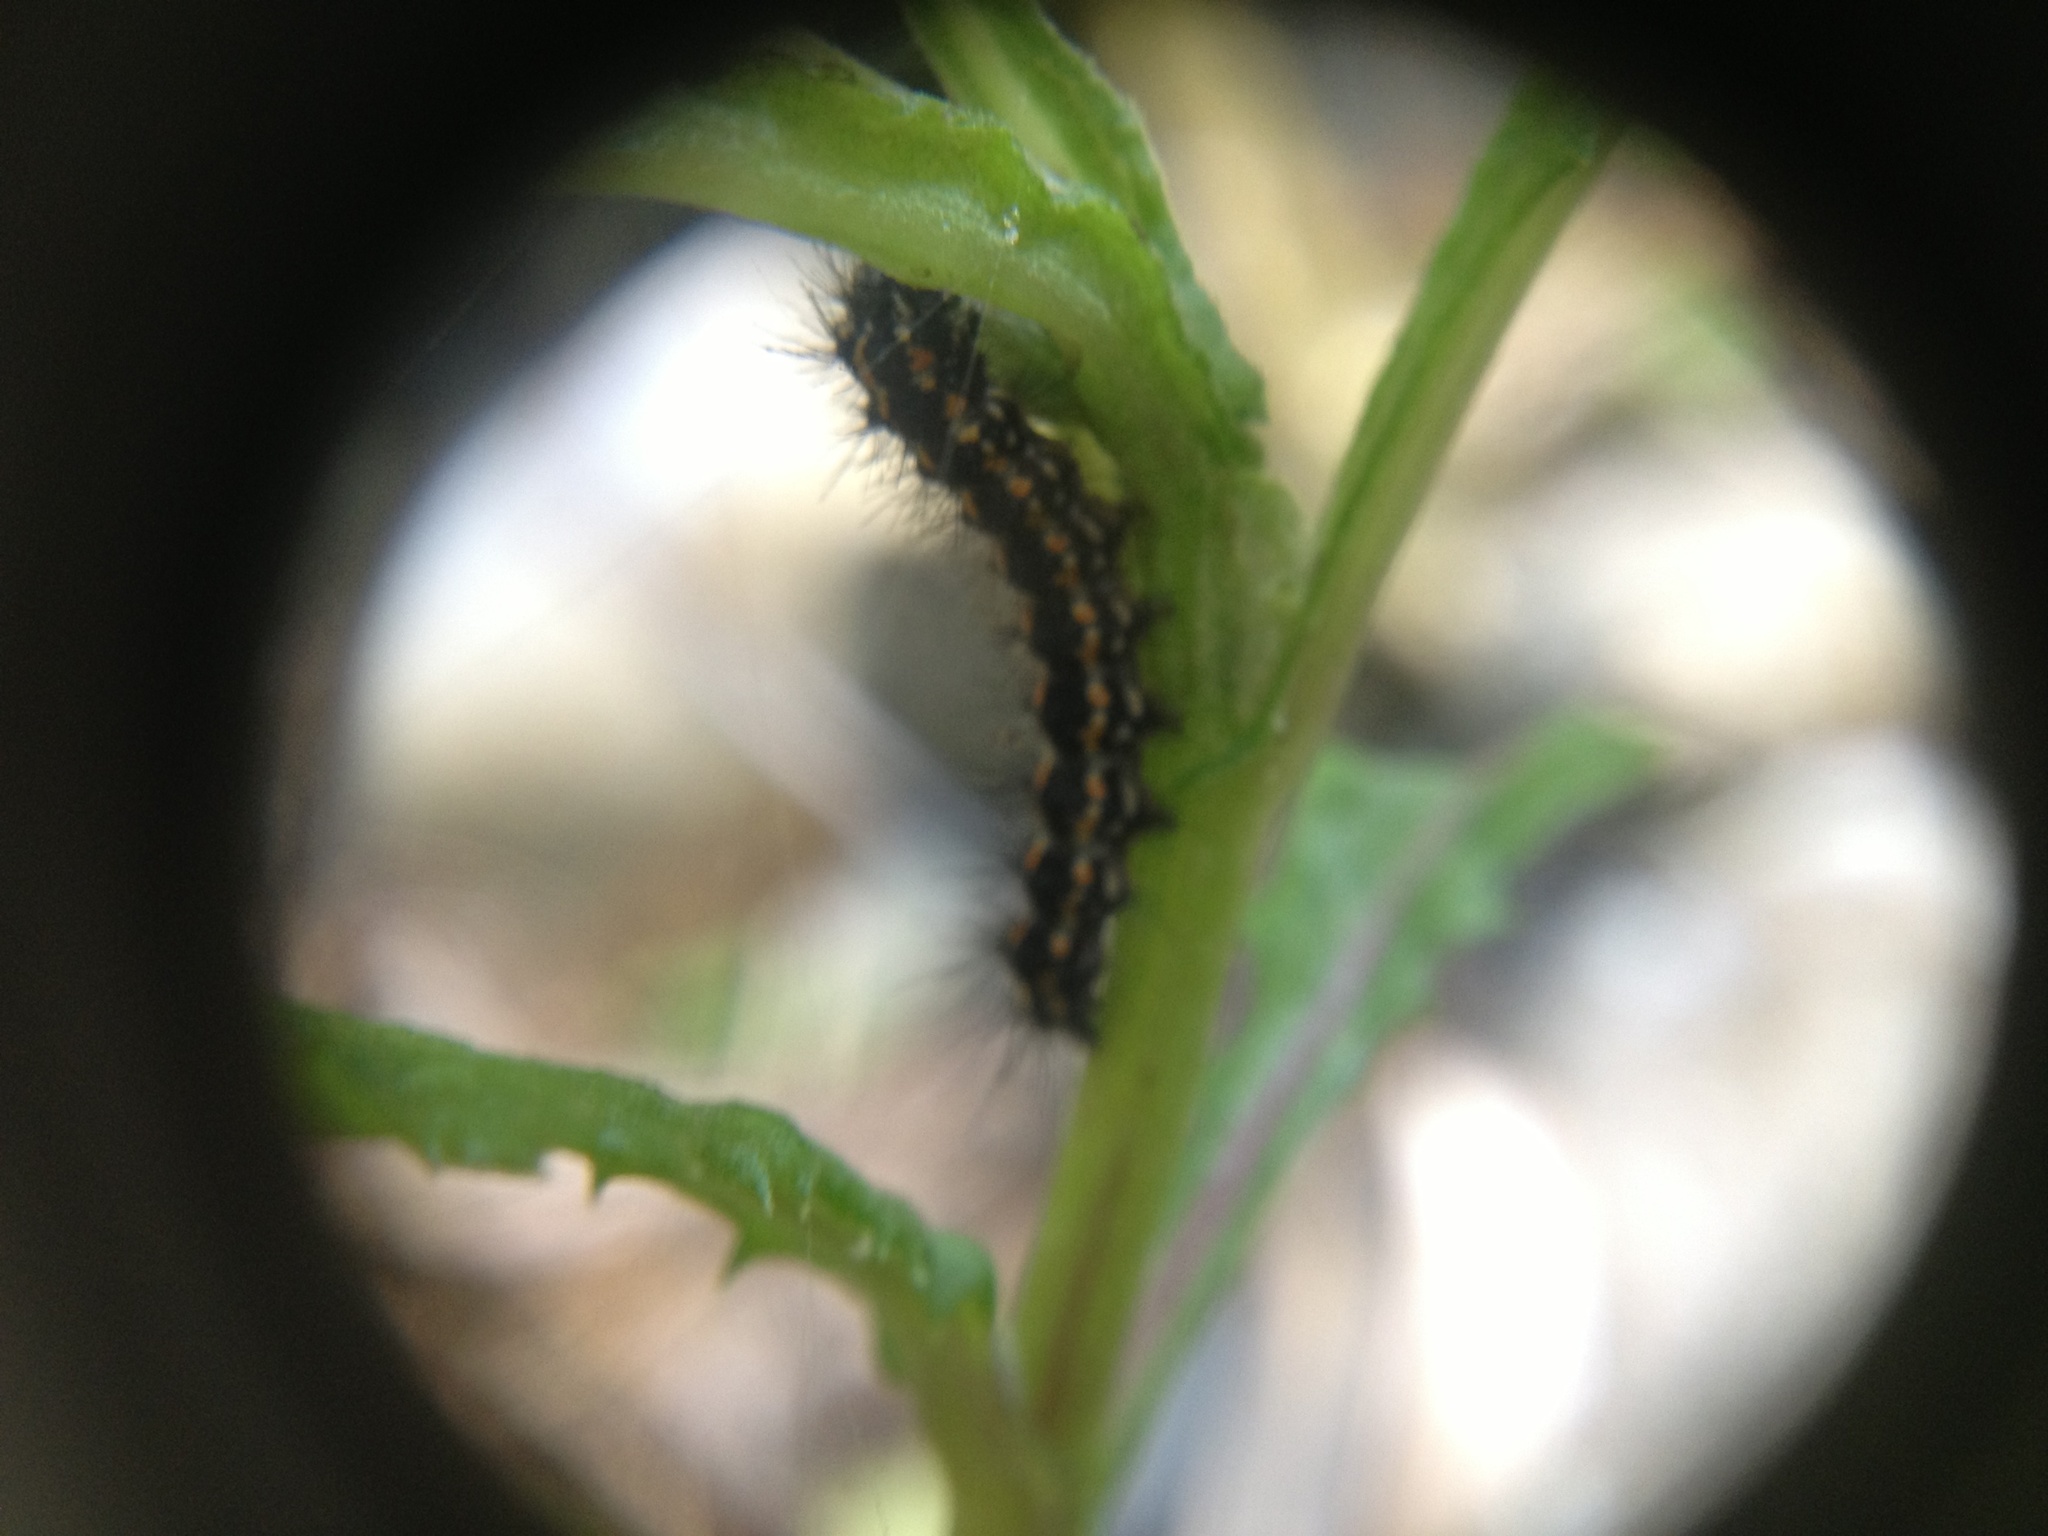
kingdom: Animalia
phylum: Arthropoda
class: Insecta
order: Lepidoptera
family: Erebidae
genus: Nyctemera
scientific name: Nyctemera annulatum
